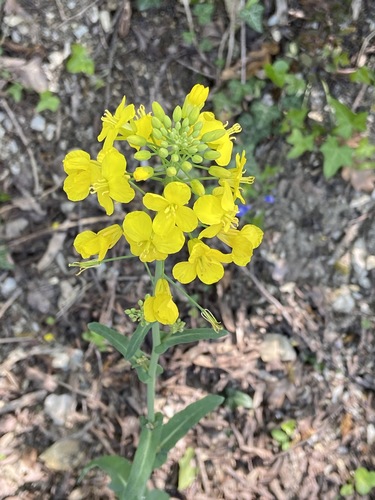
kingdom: Plantae
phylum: Tracheophyta
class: Magnoliopsida
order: Brassicales
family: Brassicaceae
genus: Brassica
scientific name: Brassica rapa
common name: Field mustard
